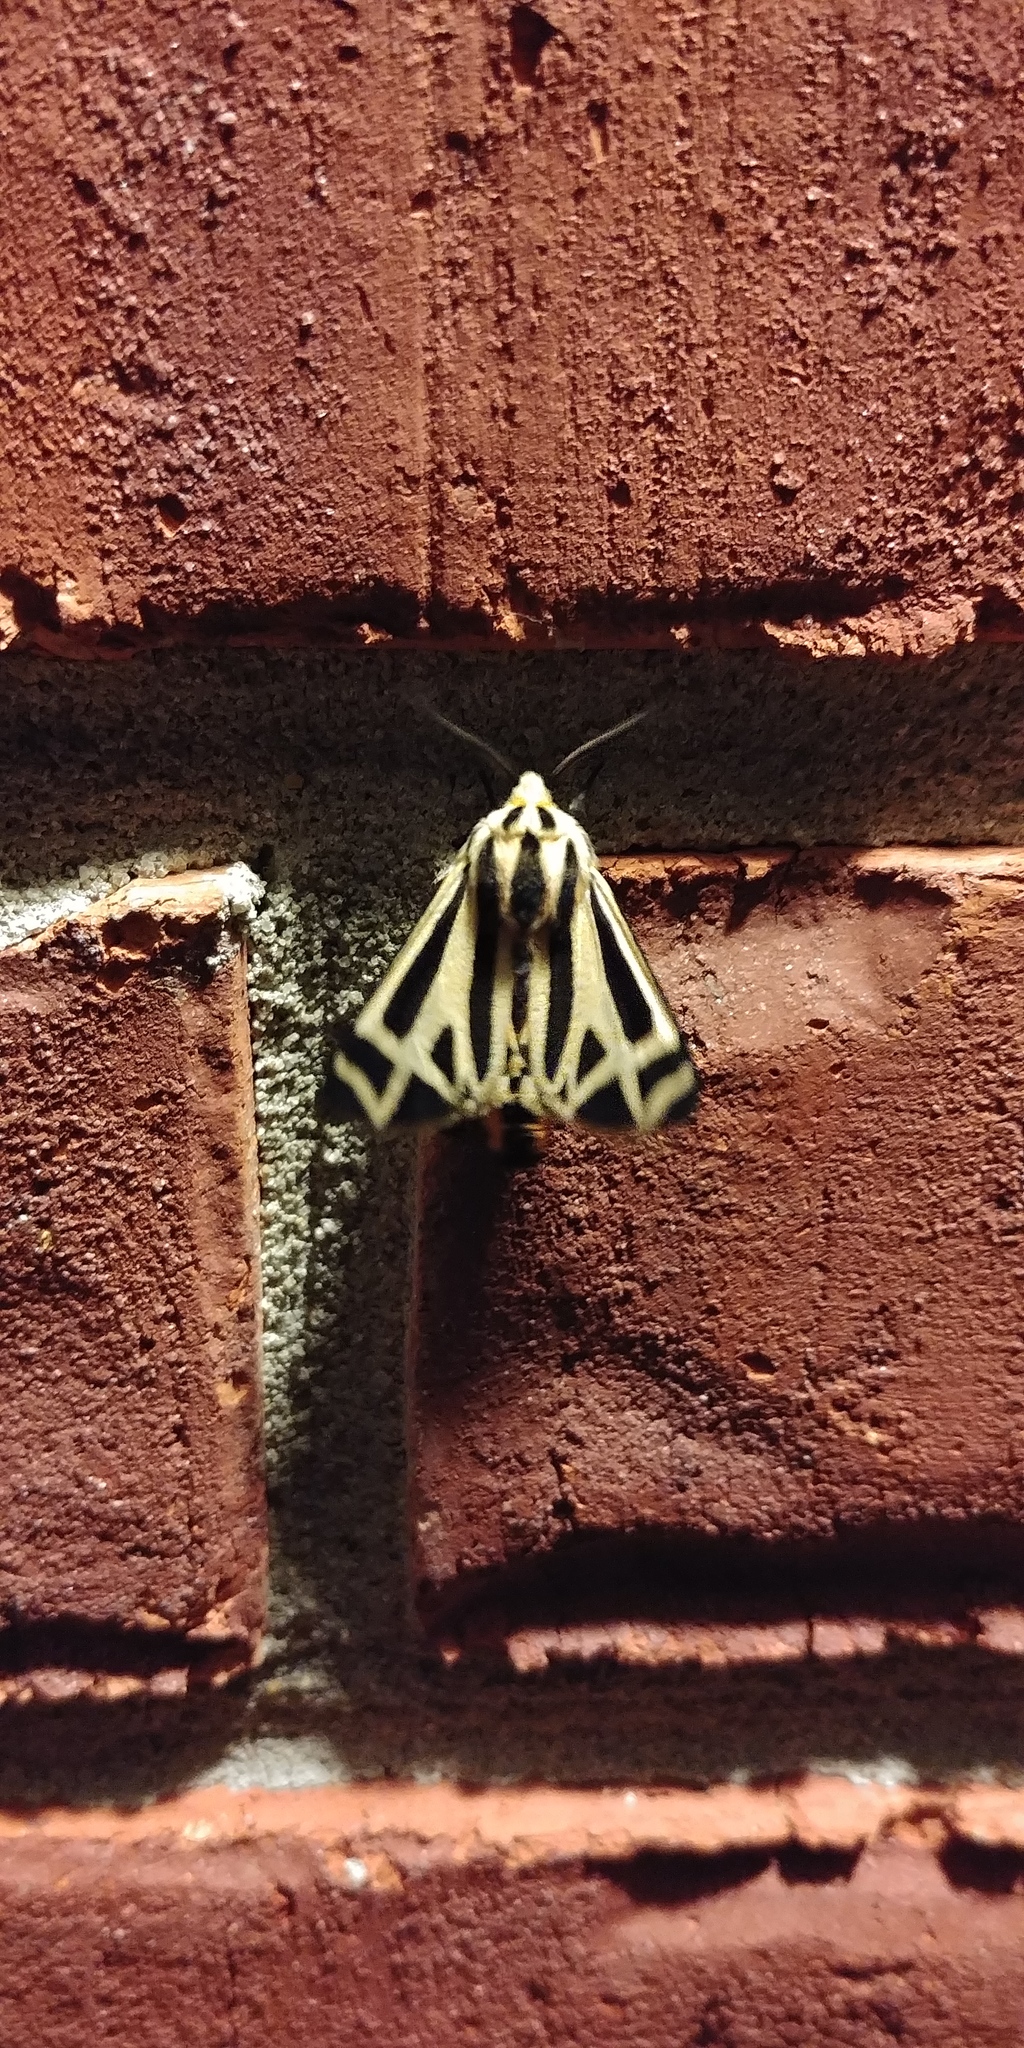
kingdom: Animalia
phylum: Arthropoda
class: Insecta
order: Lepidoptera
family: Erebidae
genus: Apantesis
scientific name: Apantesis phalerata
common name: Harnessed tiger moth
